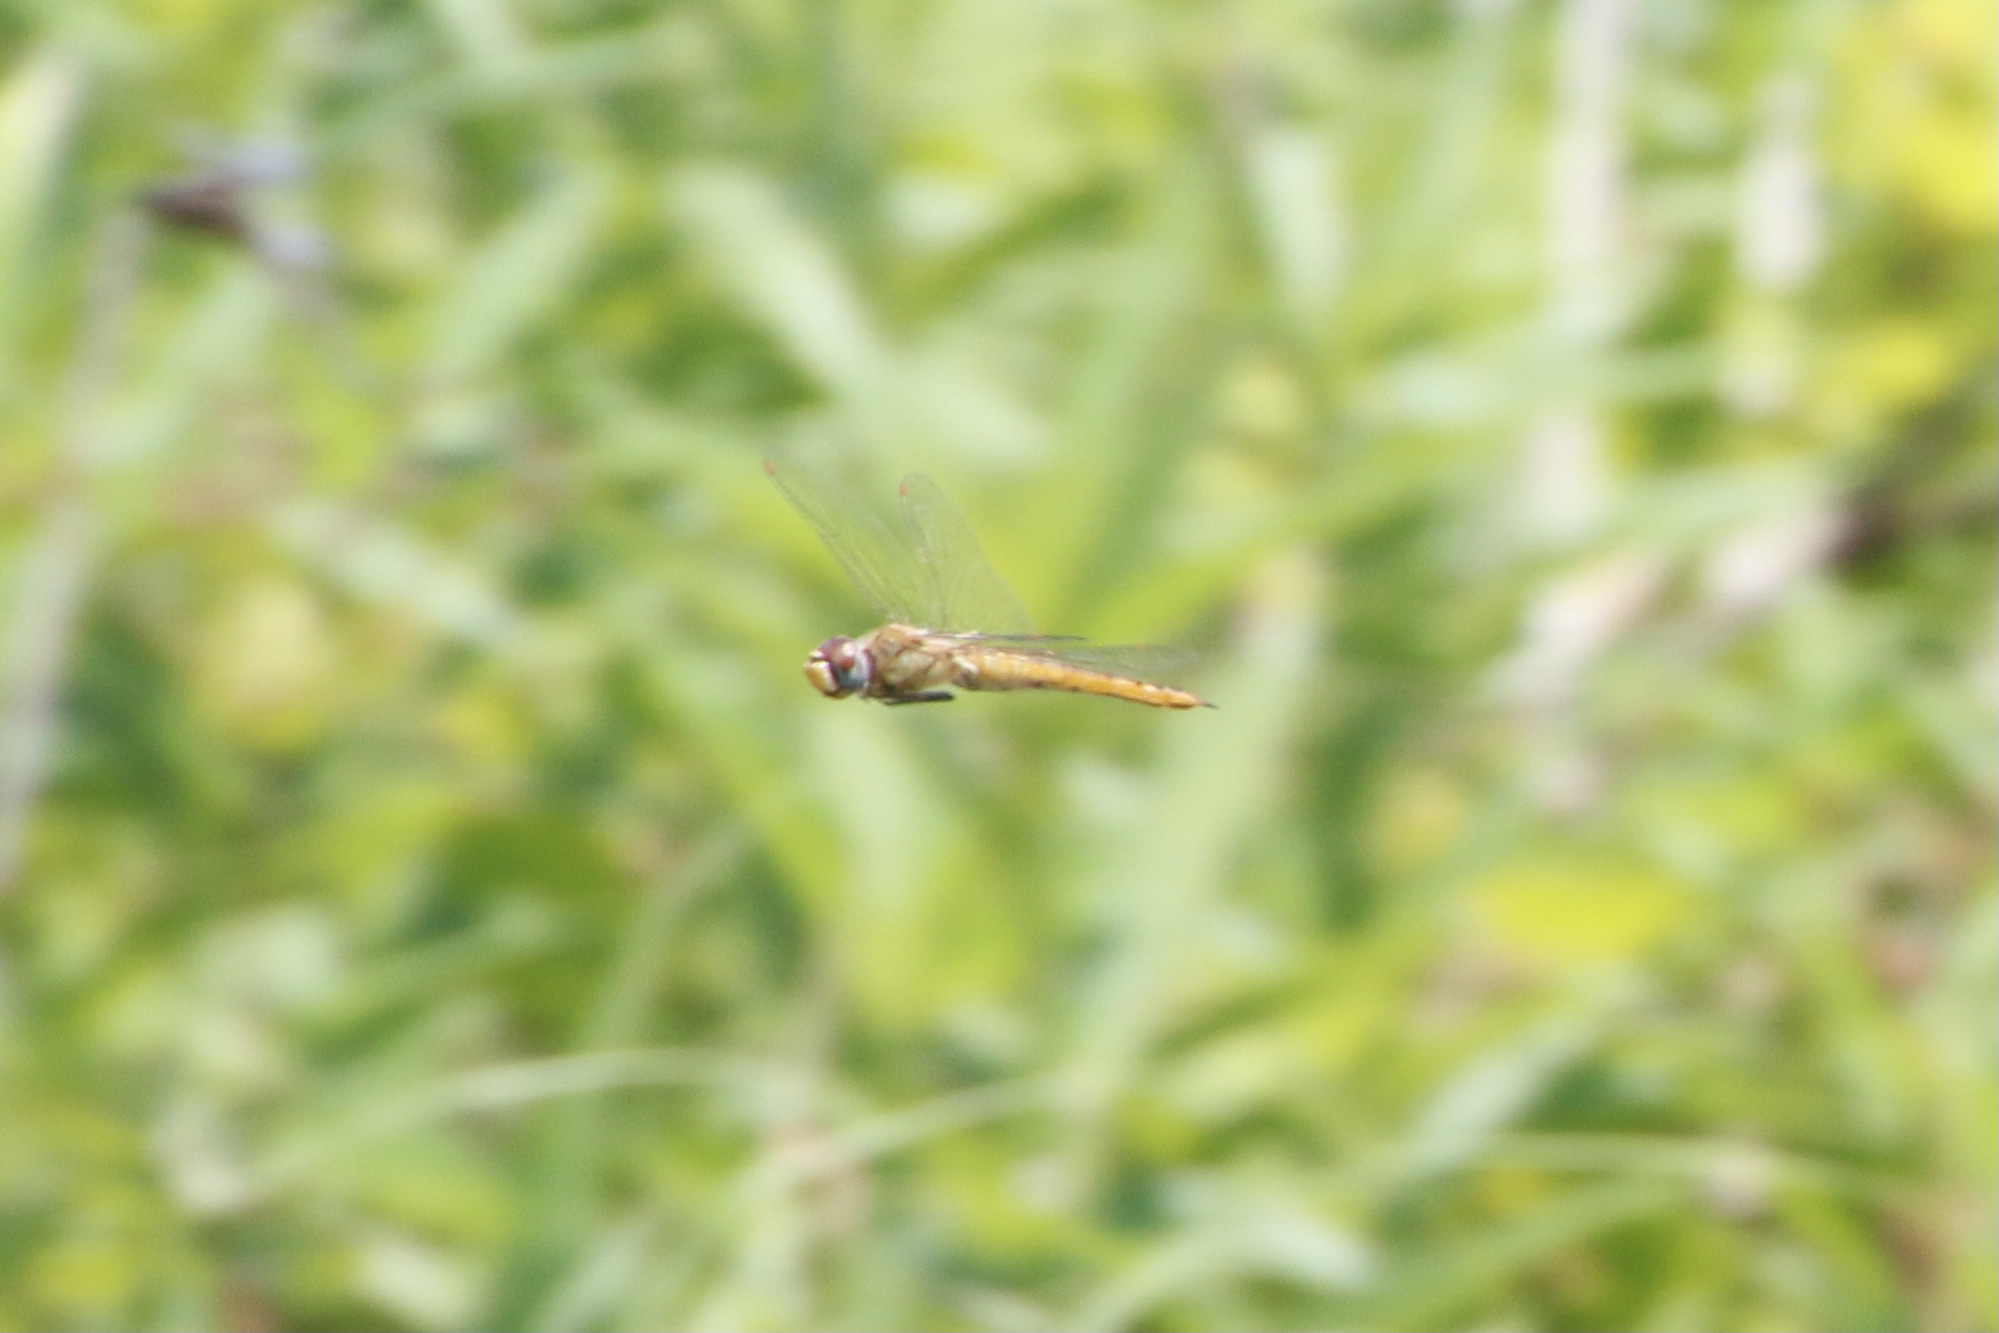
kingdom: Animalia
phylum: Arthropoda
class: Insecta
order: Odonata
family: Libellulidae
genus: Pantala
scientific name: Pantala flavescens
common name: Wandering glider
